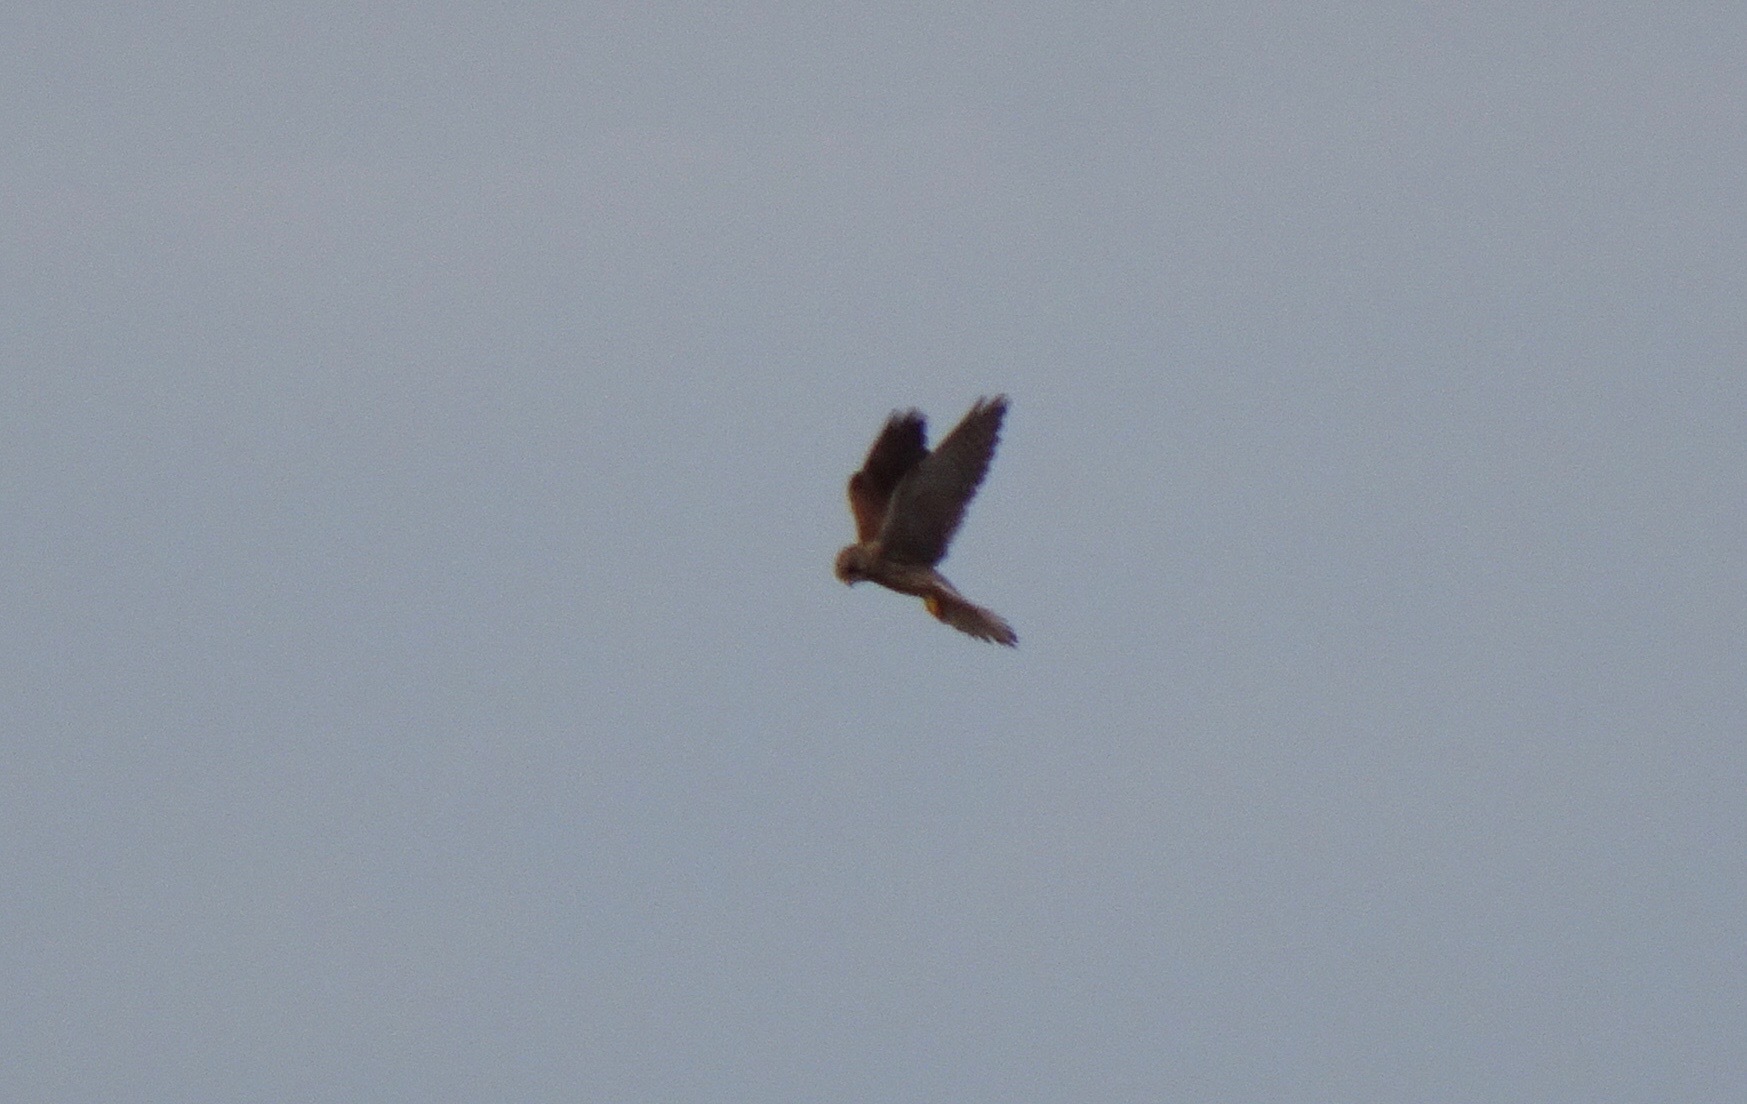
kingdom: Animalia
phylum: Chordata
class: Aves
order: Falconiformes
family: Falconidae
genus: Falco
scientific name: Falco tinnunculus
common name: Common kestrel
